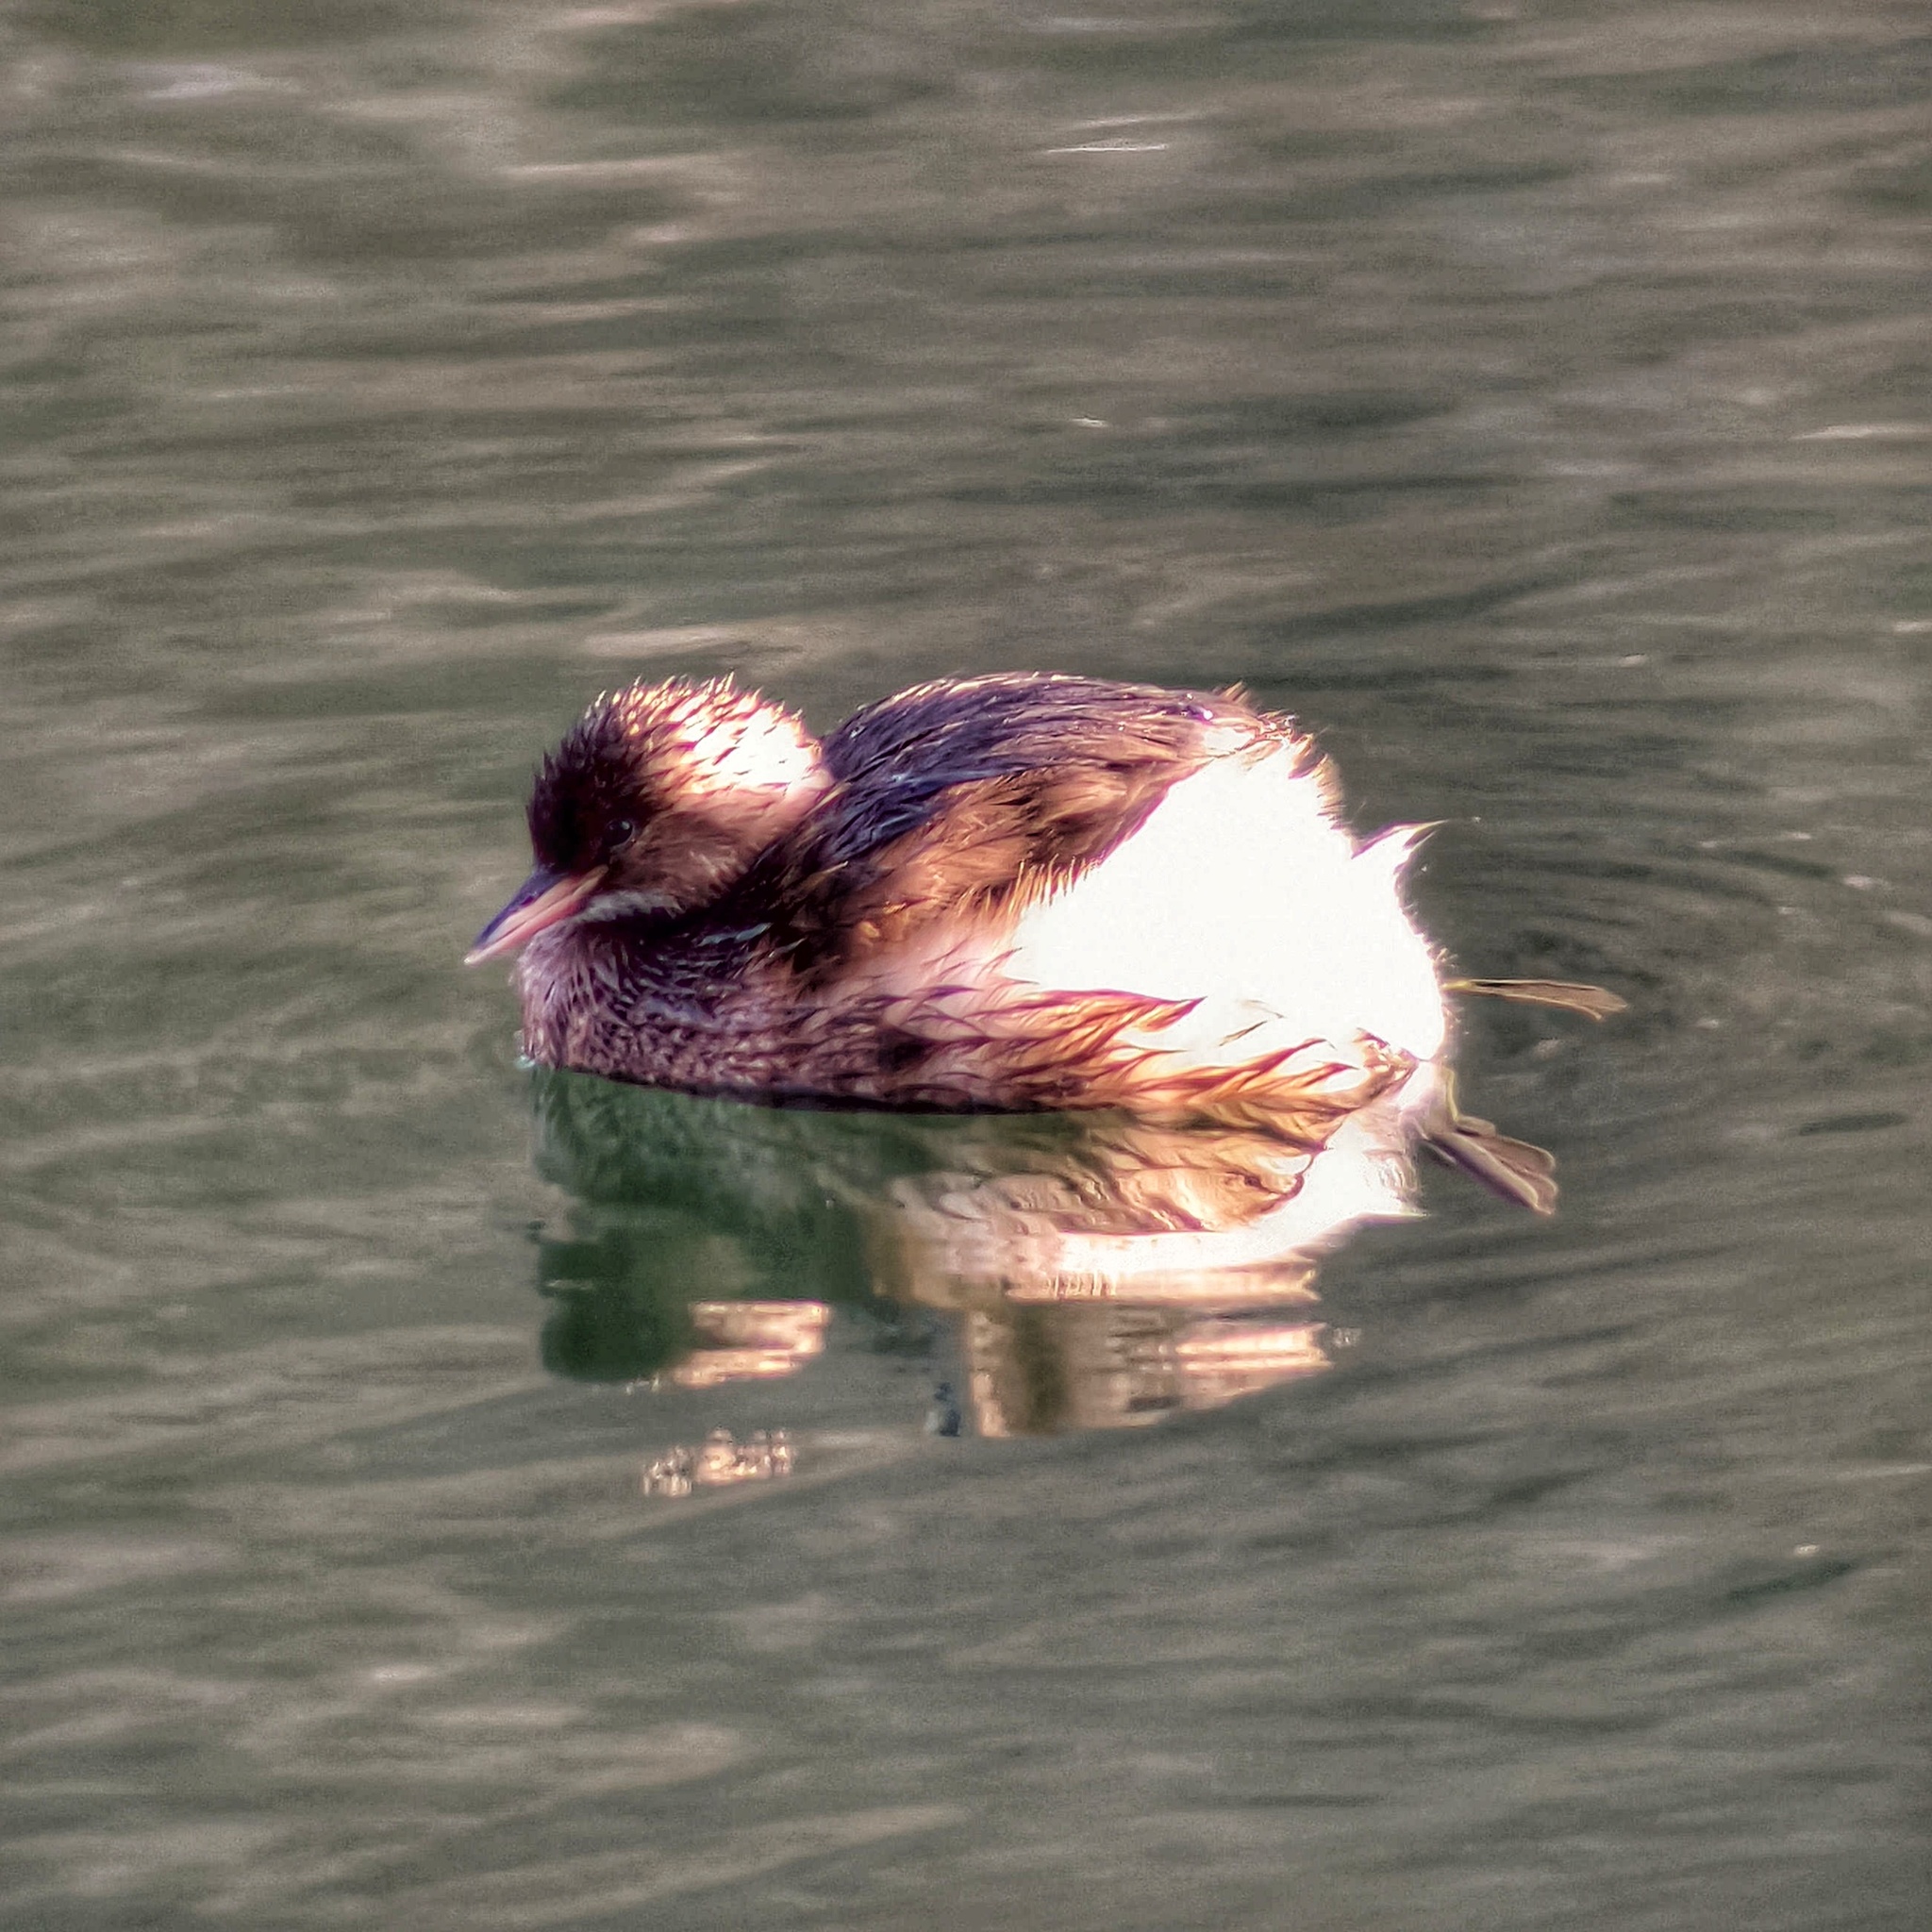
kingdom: Animalia
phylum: Chordata
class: Aves
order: Podicipediformes
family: Podicipedidae
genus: Tachybaptus
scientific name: Tachybaptus ruficollis
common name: Little grebe
